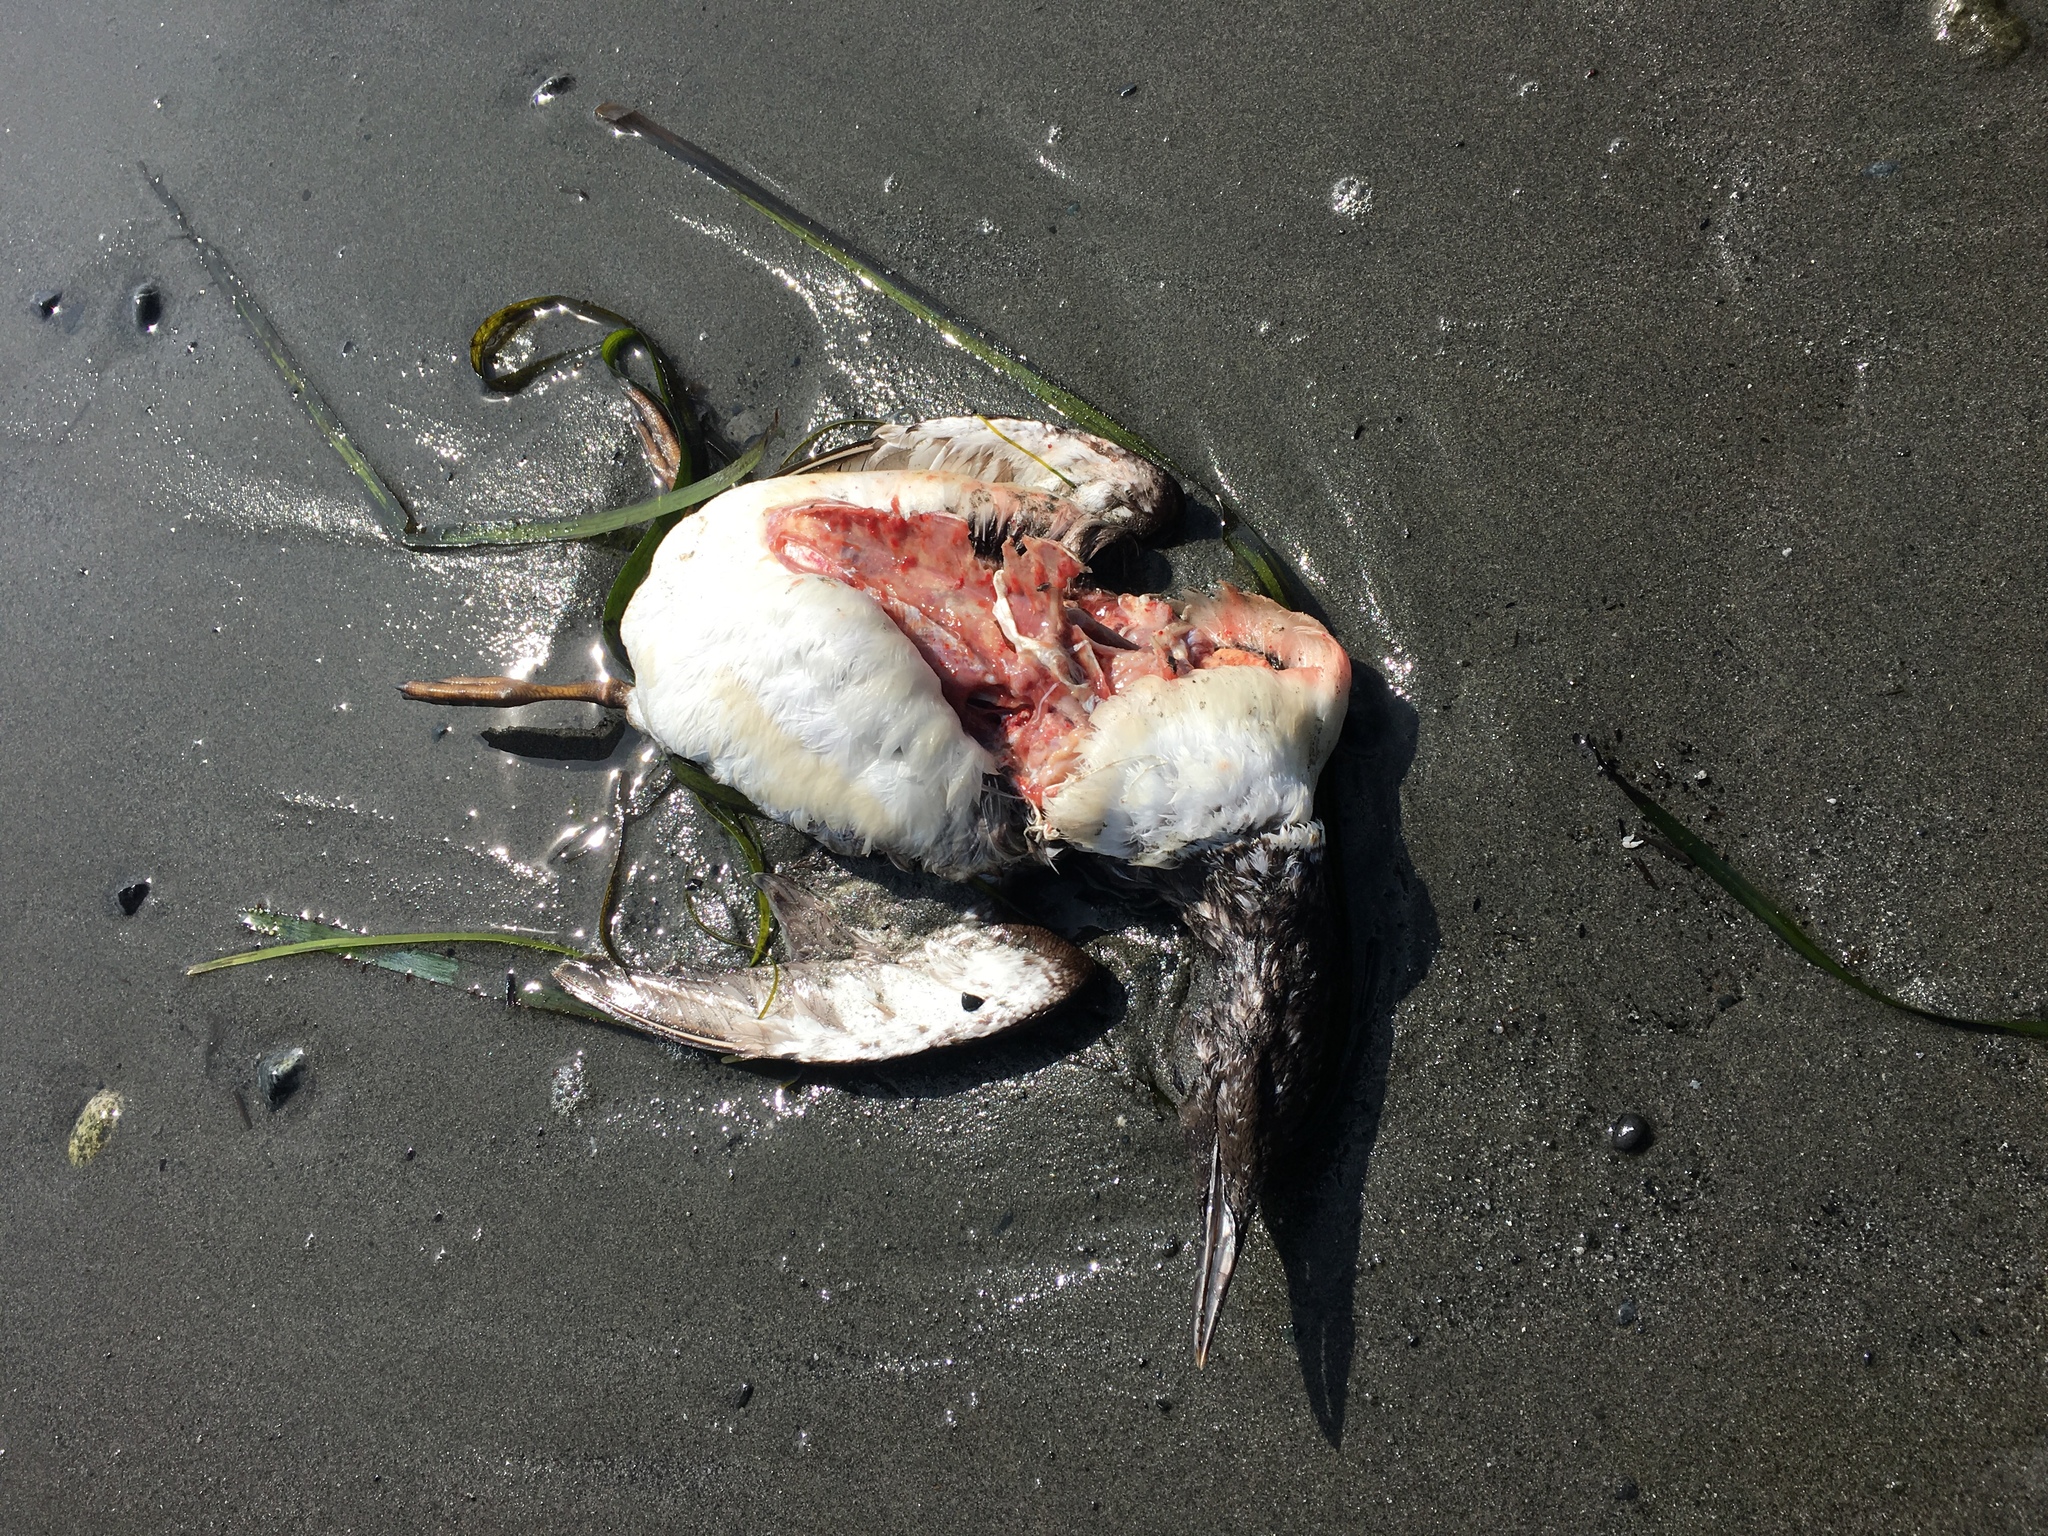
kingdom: Animalia
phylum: Chordata
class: Aves
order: Charadriiformes
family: Alcidae
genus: Uria
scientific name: Uria aalge
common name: Common murre
